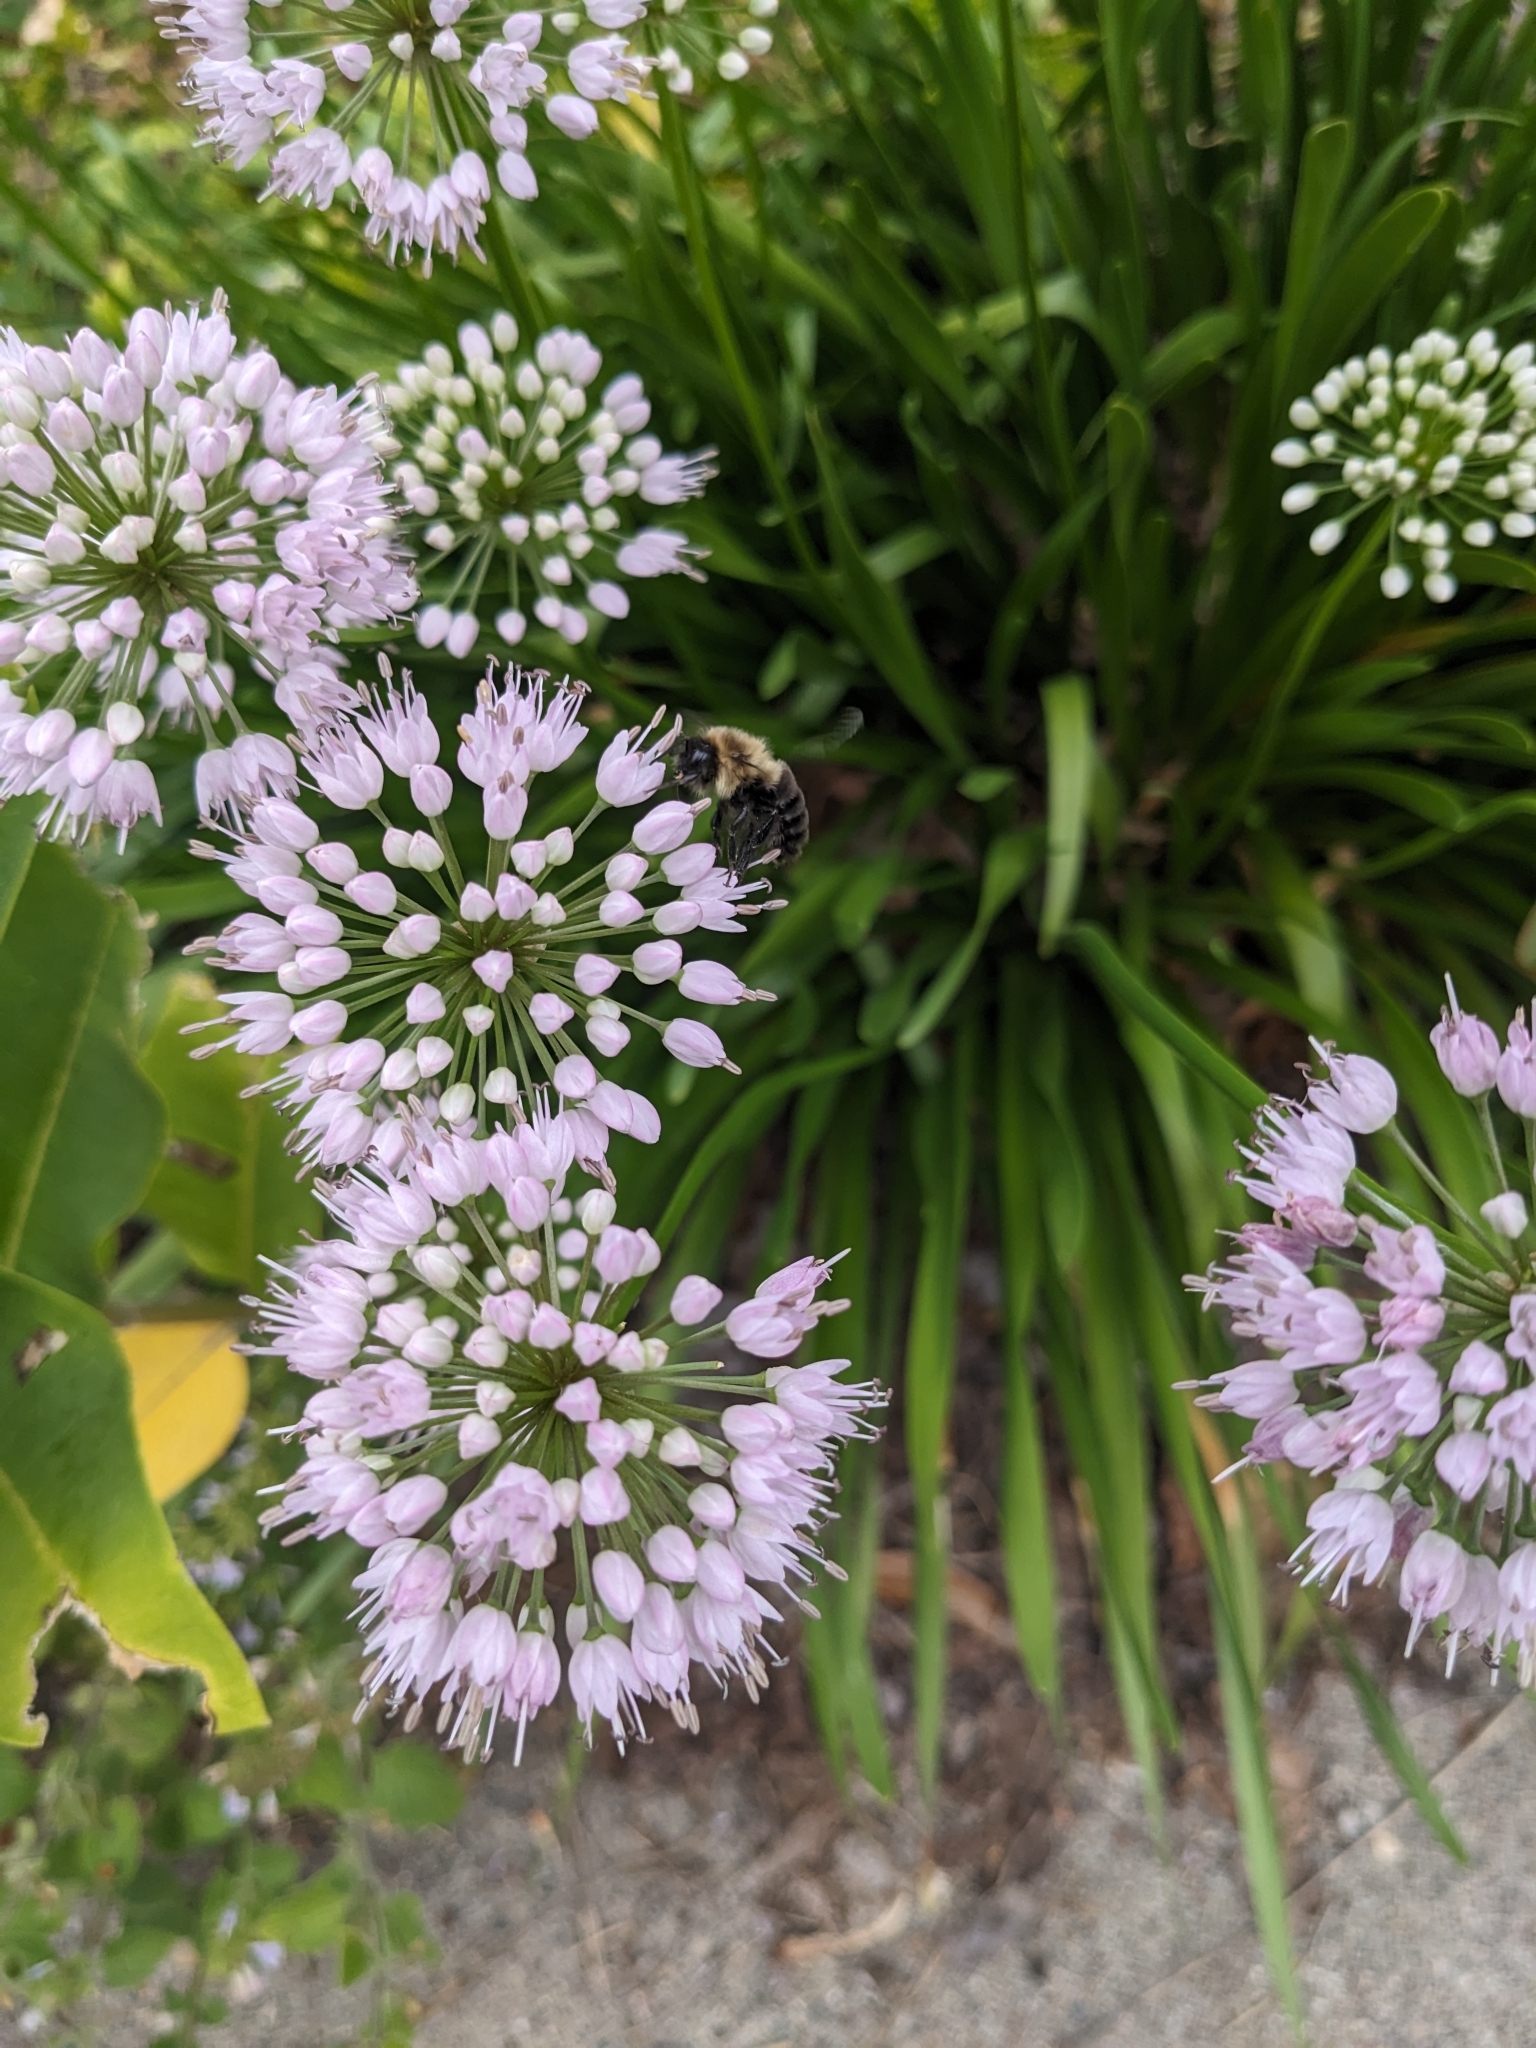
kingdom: Animalia
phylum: Arthropoda
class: Insecta
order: Hymenoptera
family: Apidae
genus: Bombus
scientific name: Bombus impatiens
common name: Common eastern bumble bee
